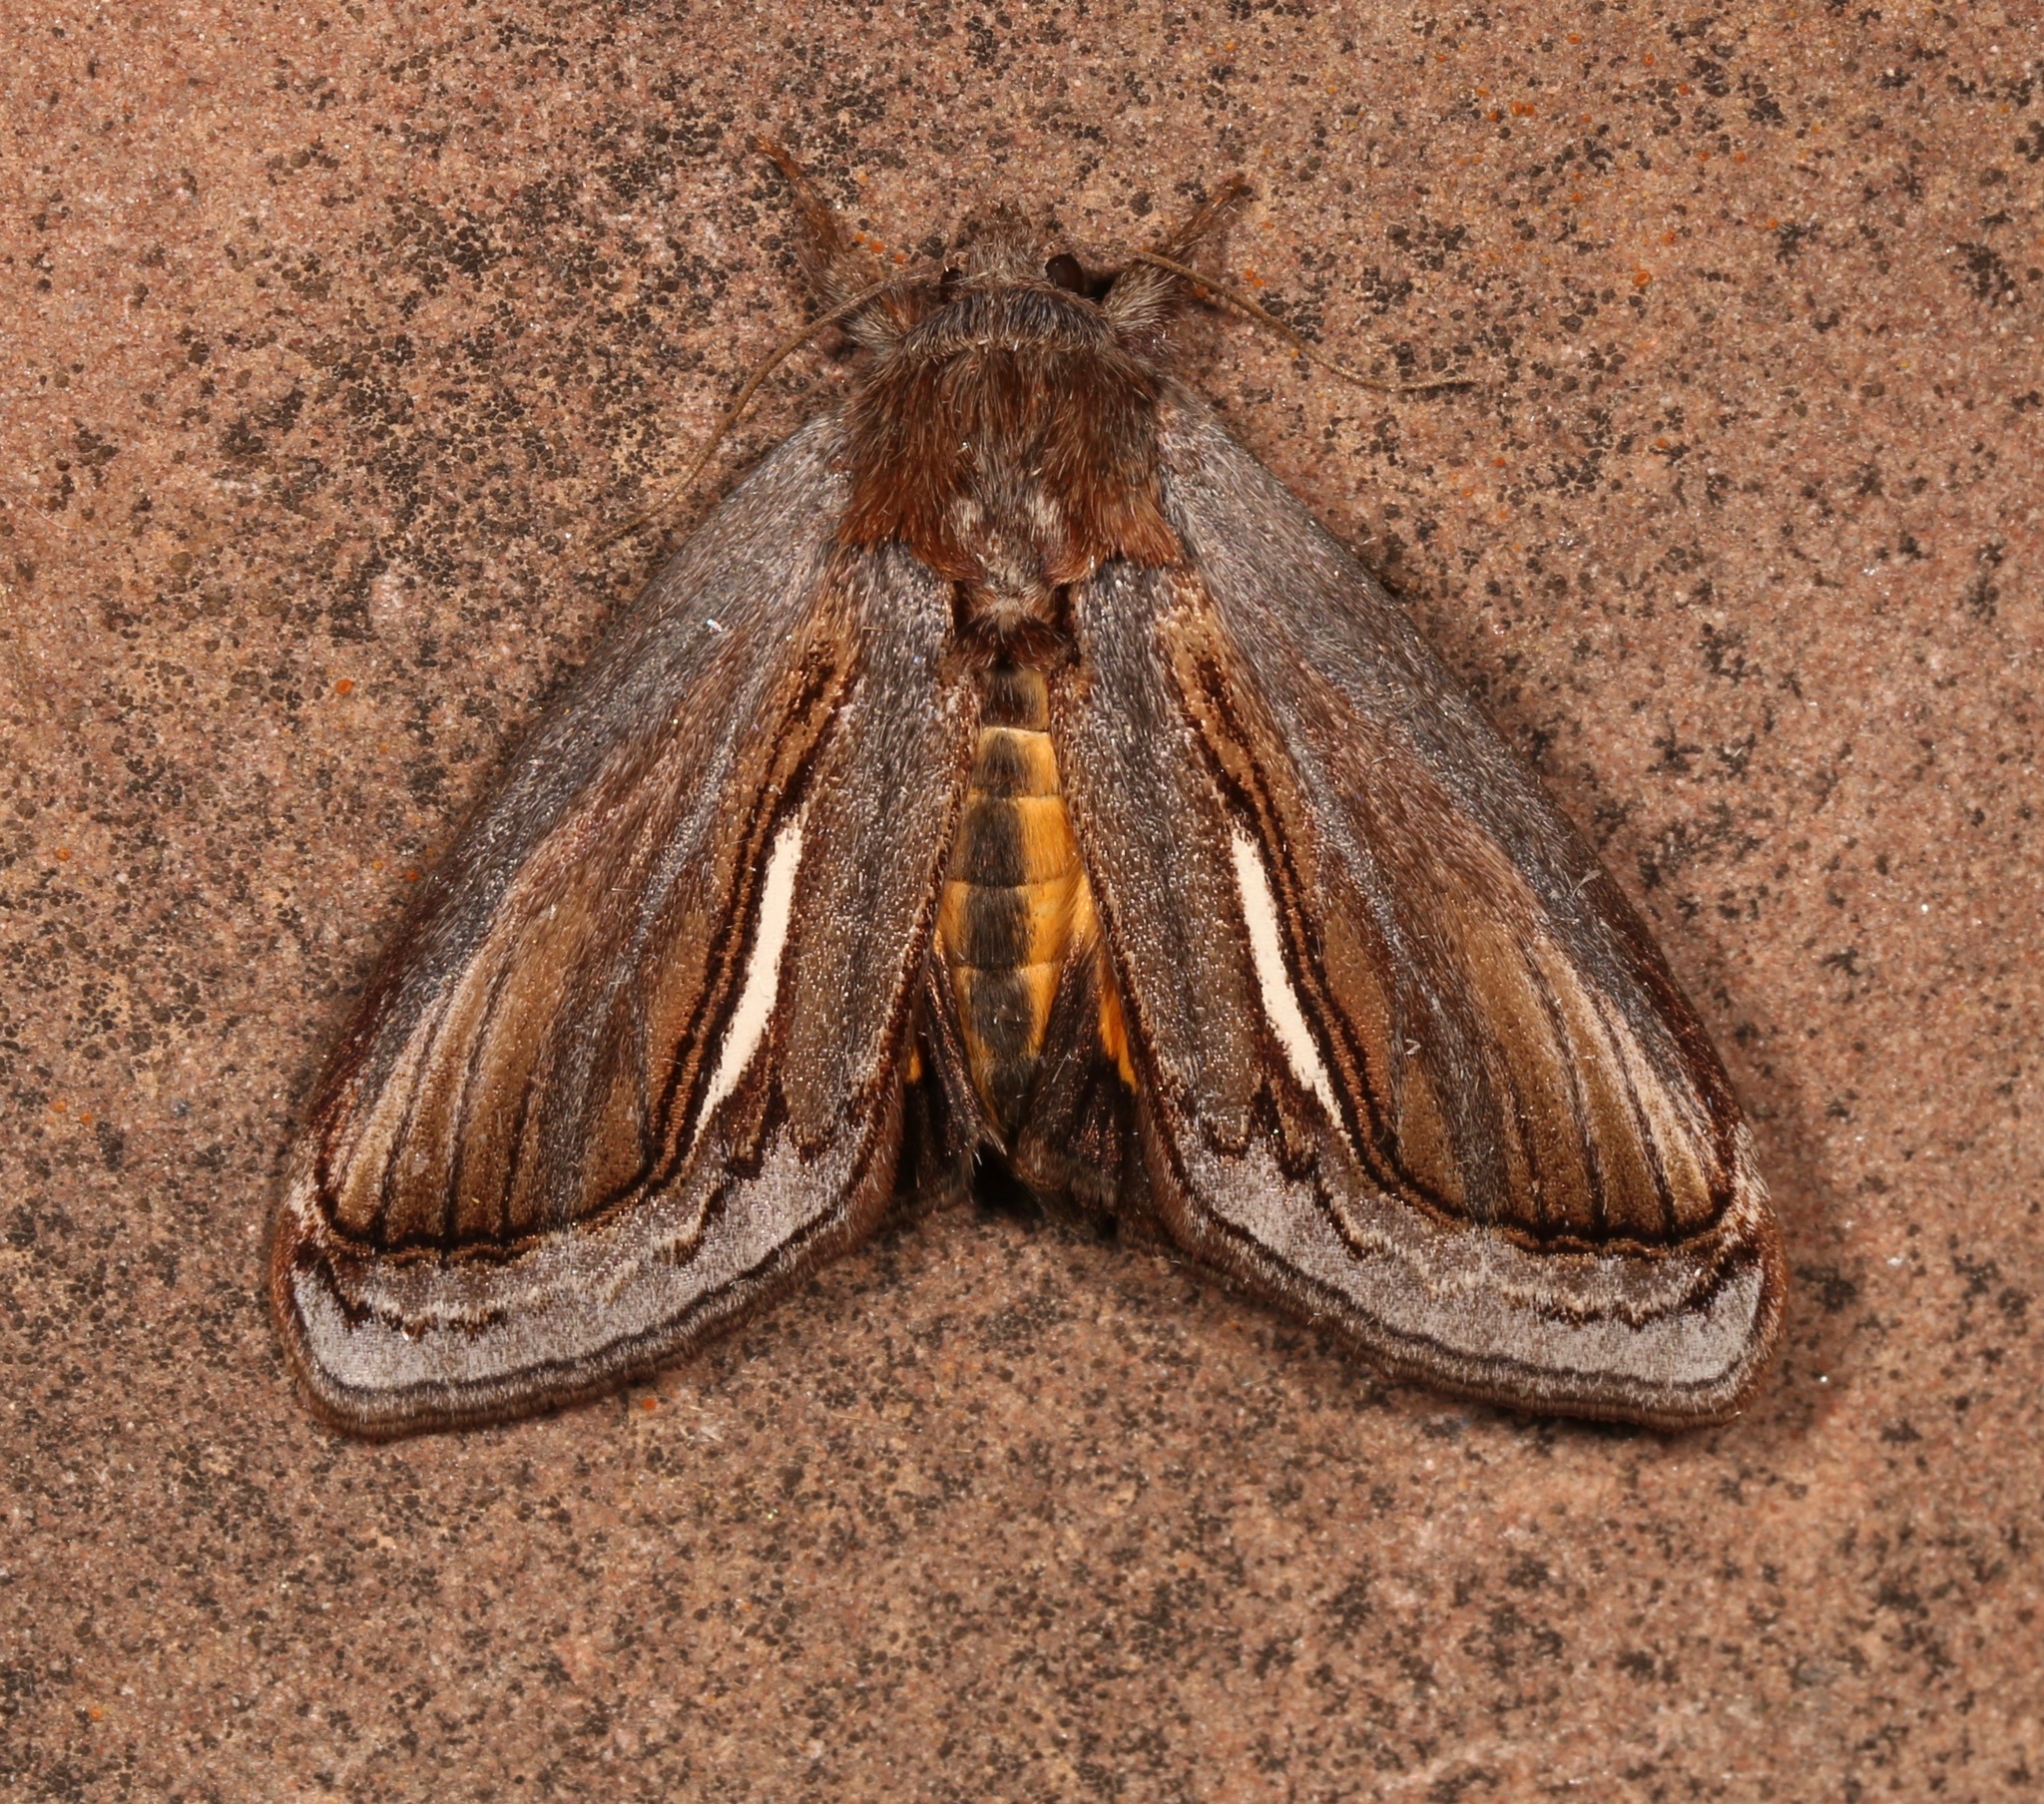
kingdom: Animalia
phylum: Arthropoda
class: Insecta
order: Lepidoptera
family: Noctuidae
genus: Gerrodes
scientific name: Gerrodes minatea
